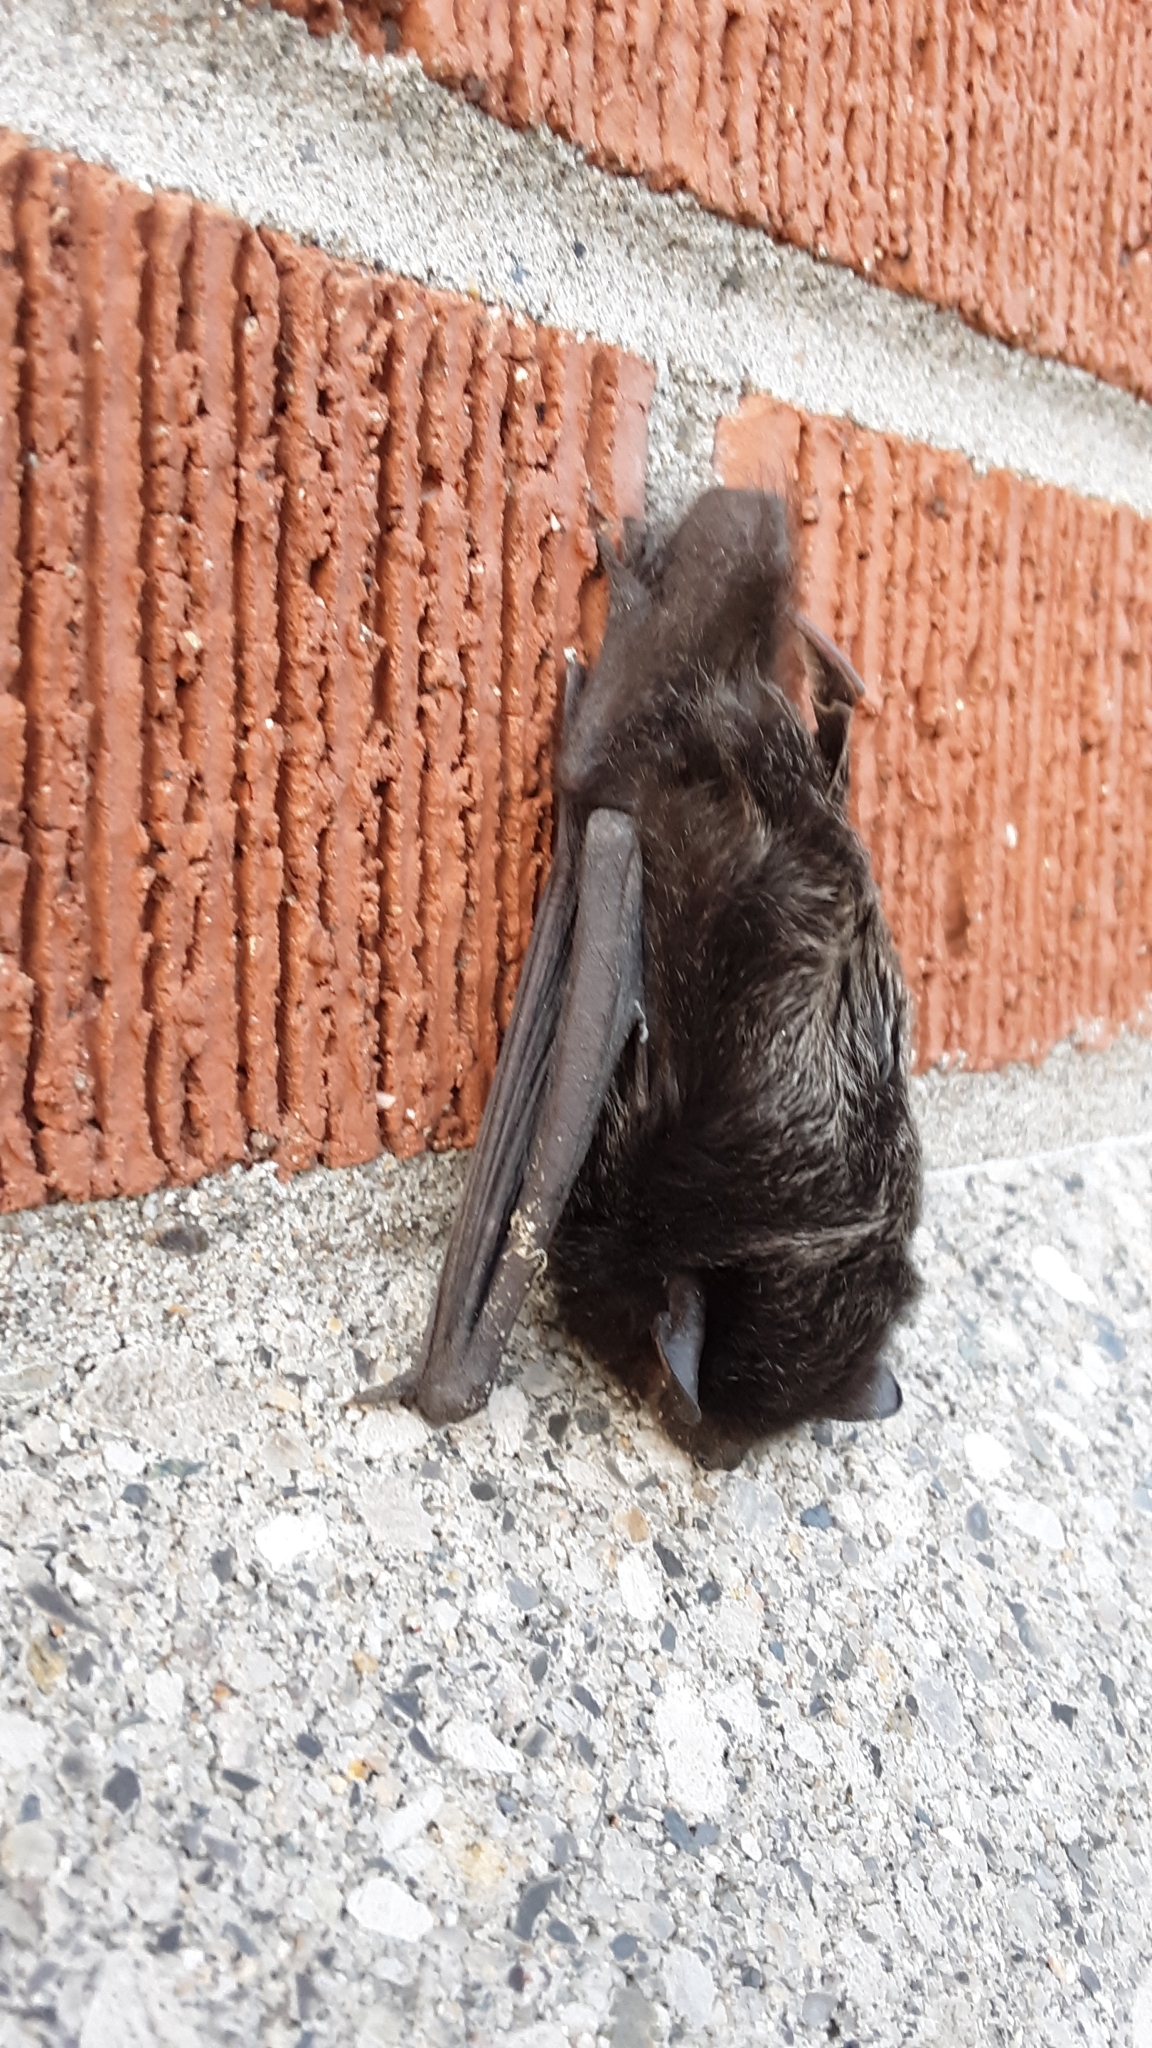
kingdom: Animalia
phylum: Chordata
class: Mammalia
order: Chiroptera
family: Vespertilionidae
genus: Lasionycteris
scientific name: Lasionycteris noctivagans
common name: Silver-haired bat
